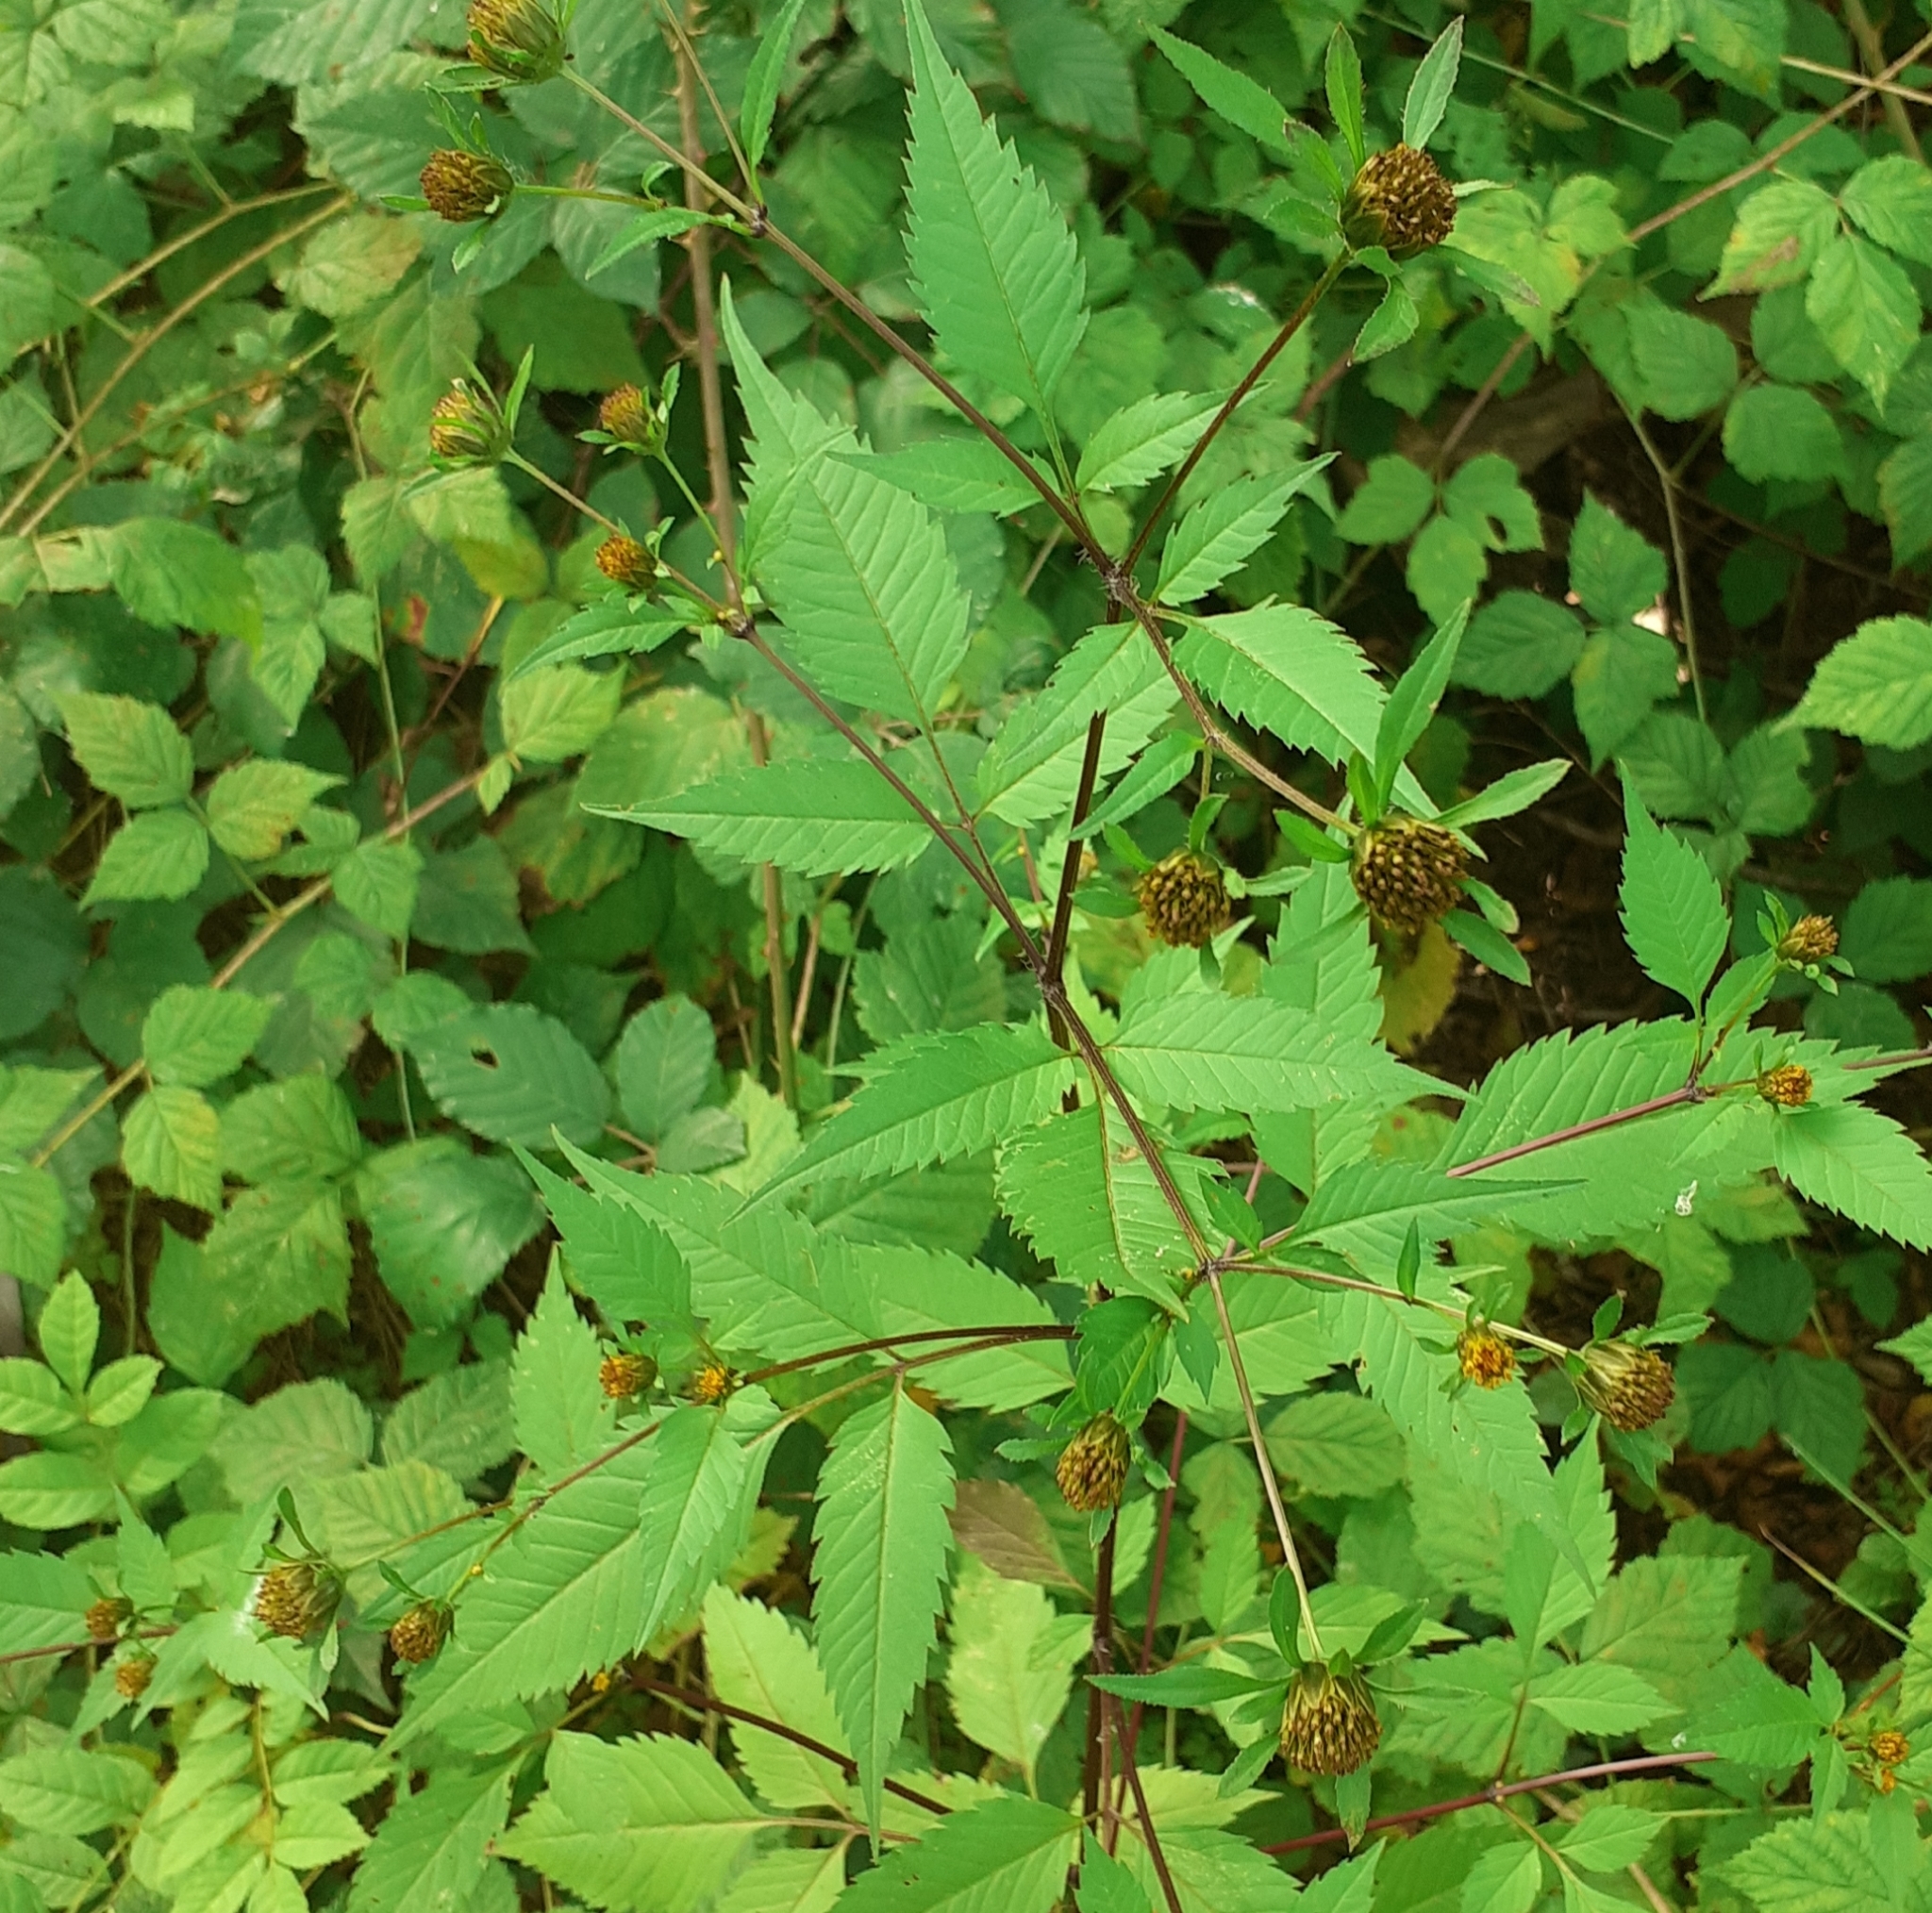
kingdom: Plantae
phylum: Tracheophyta
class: Magnoliopsida
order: Asterales
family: Asteraceae
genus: Bidens
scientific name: Bidens frondosa
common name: Beggarticks
